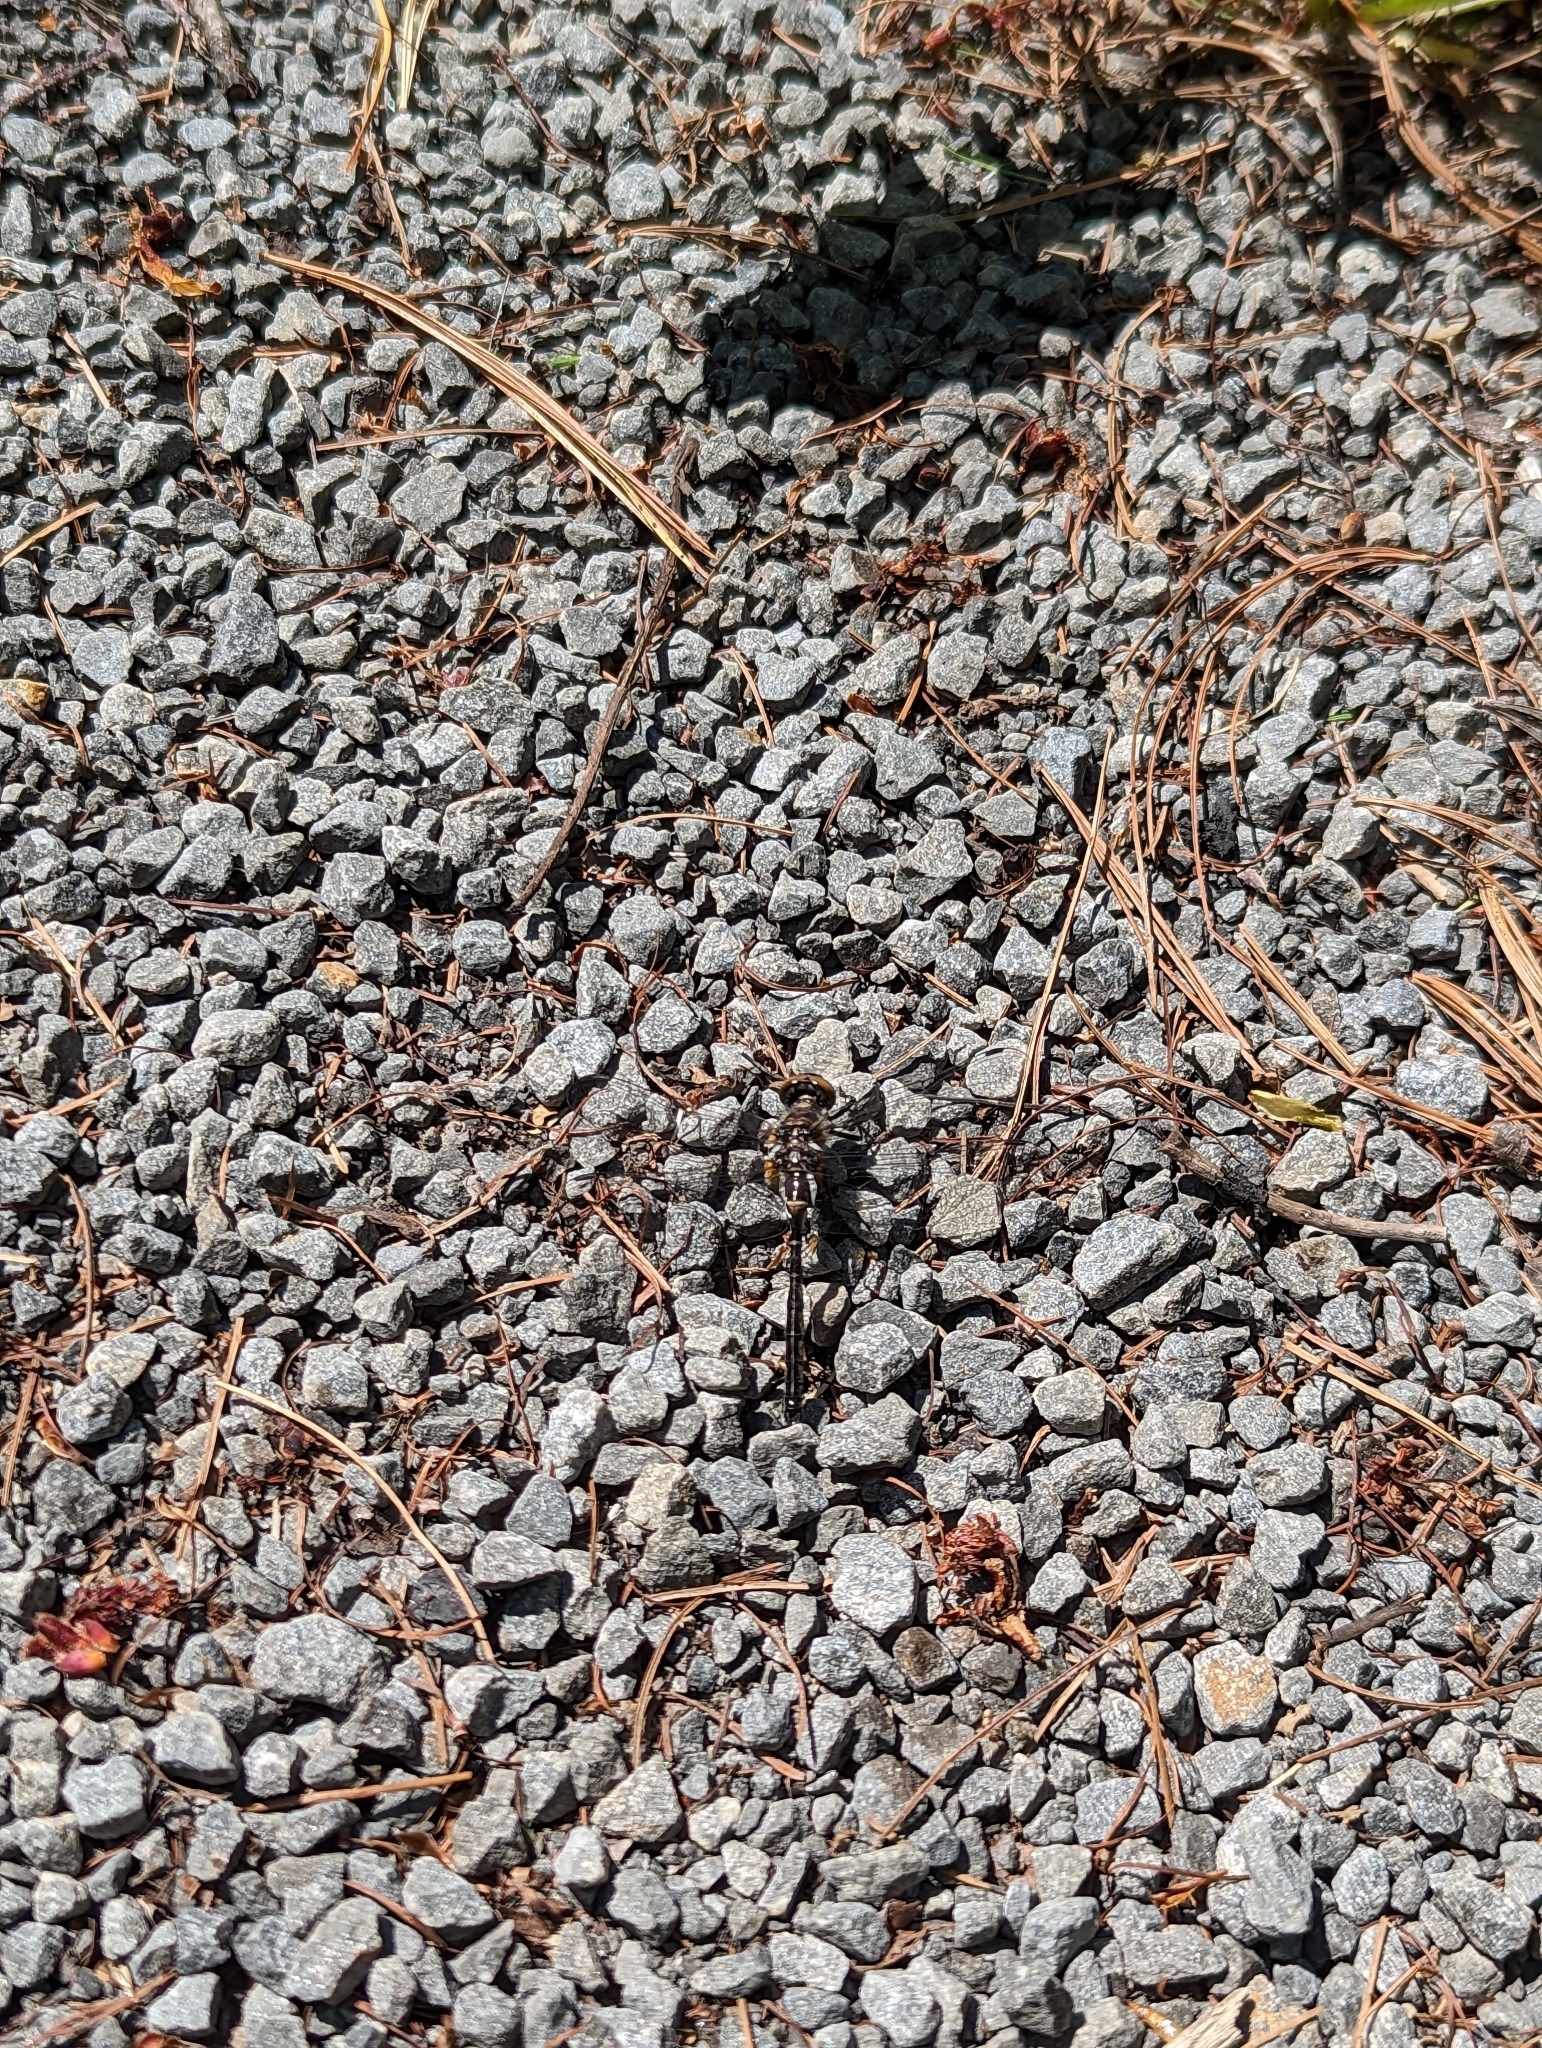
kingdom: Animalia
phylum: Arthropoda
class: Insecta
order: Odonata
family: Corduliidae
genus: Williamsonia
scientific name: Williamsonia fletcheri
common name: Ebony boghaunter
